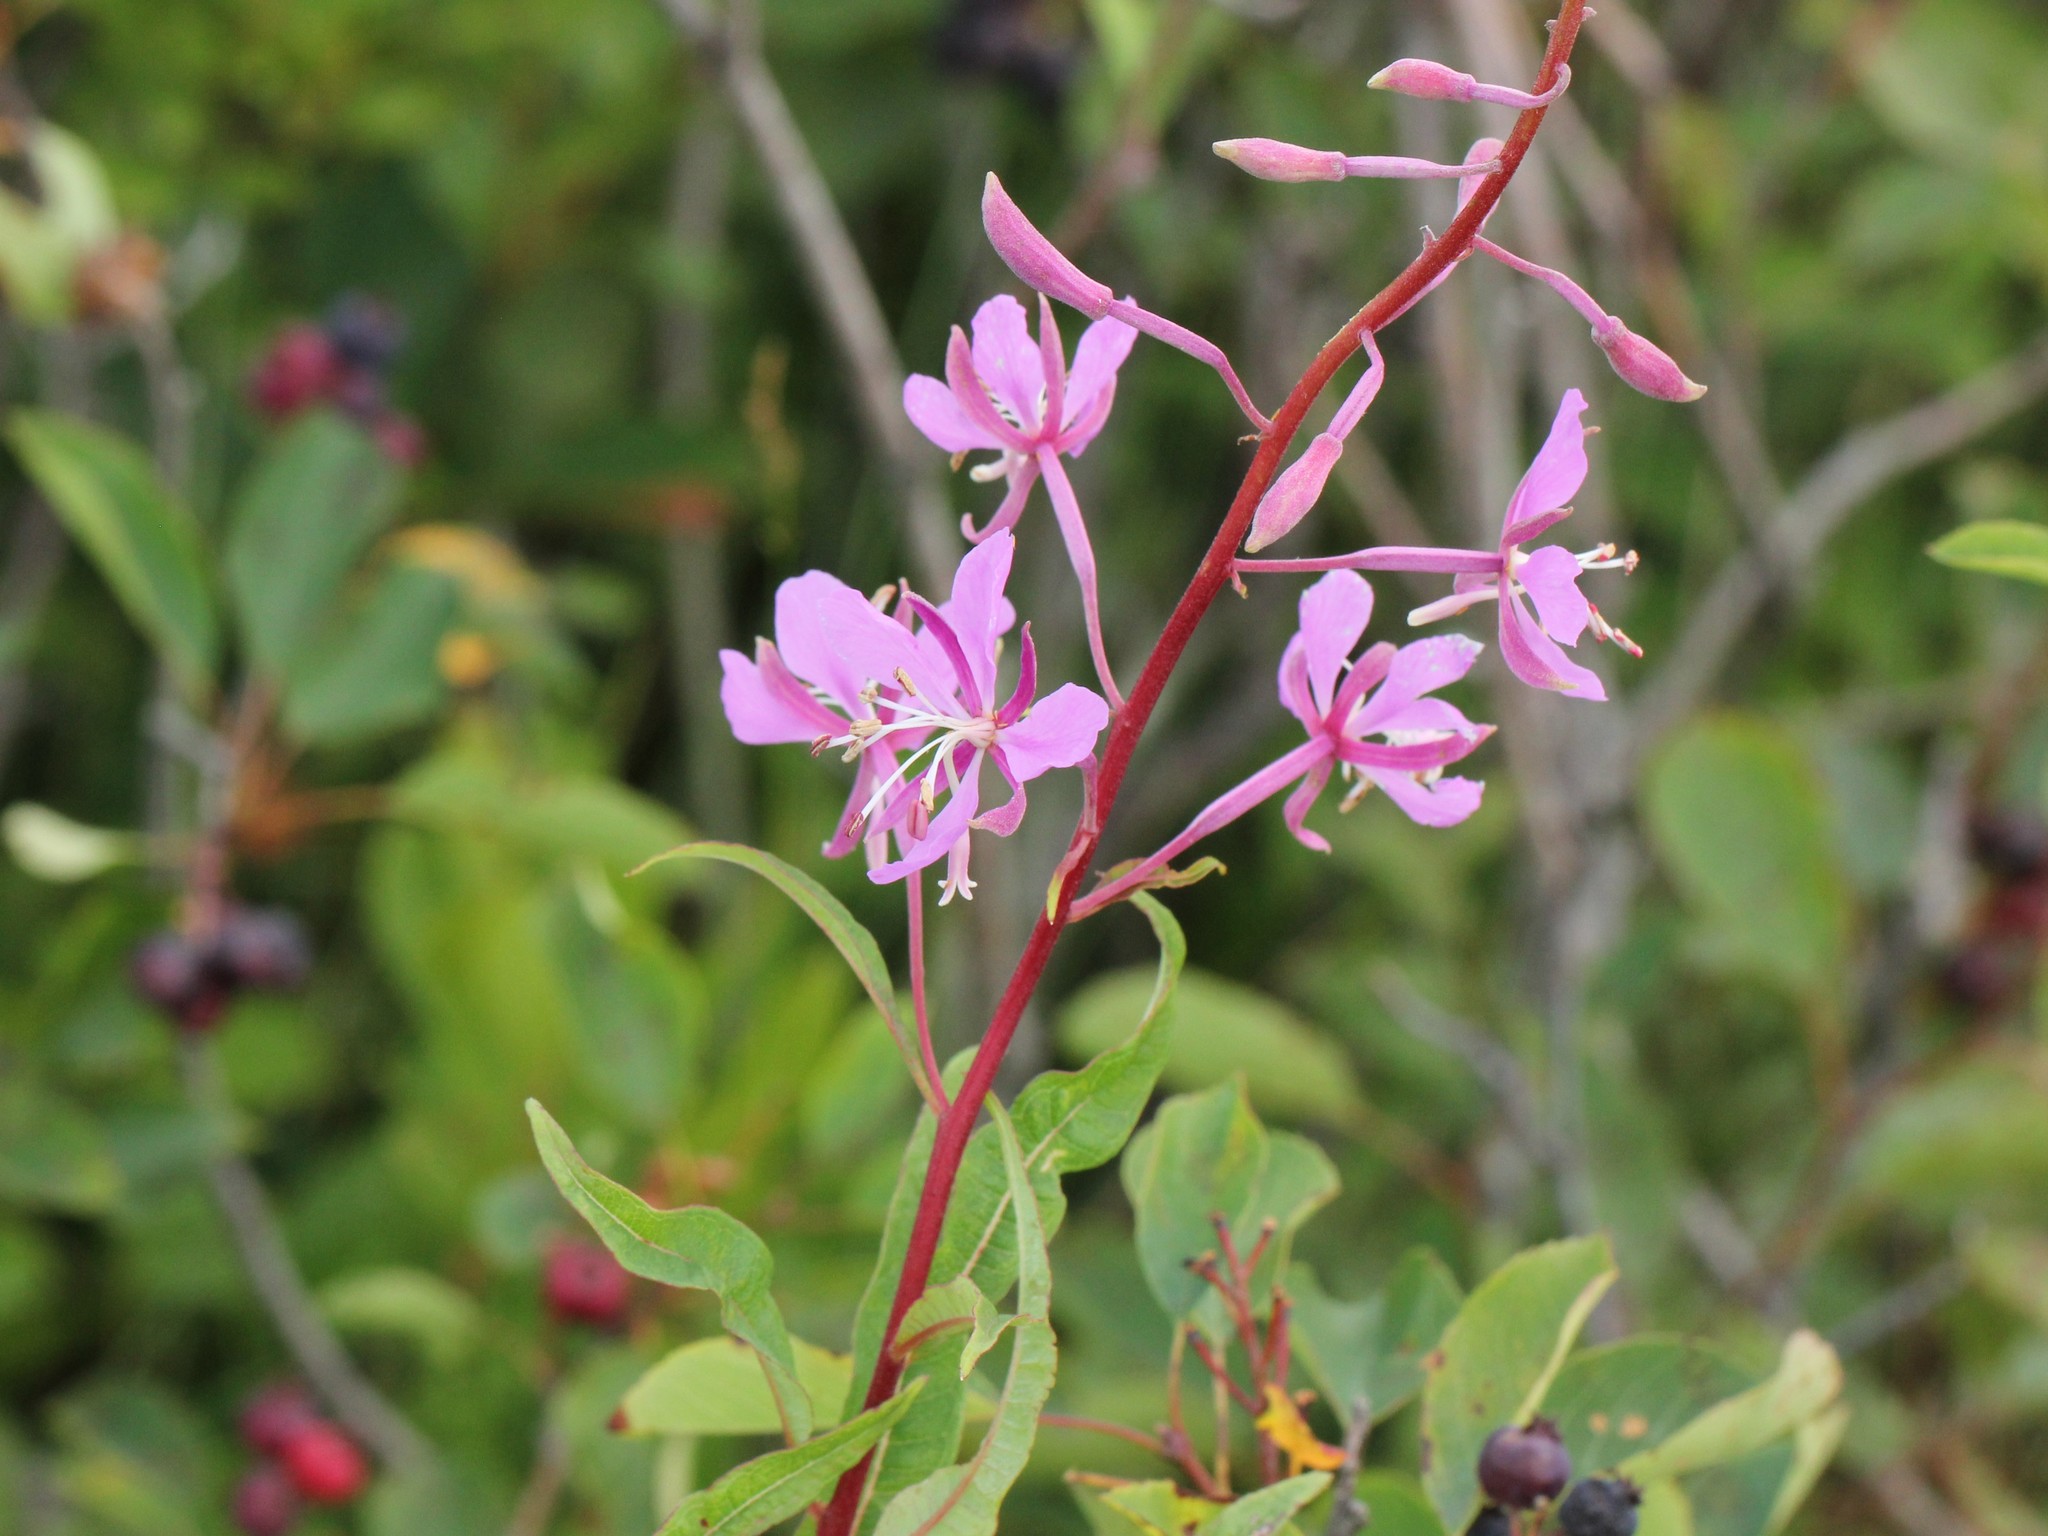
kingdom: Plantae
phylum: Tracheophyta
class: Magnoliopsida
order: Myrtales
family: Onagraceae
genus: Chamaenerion
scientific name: Chamaenerion angustifolium
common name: Fireweed
